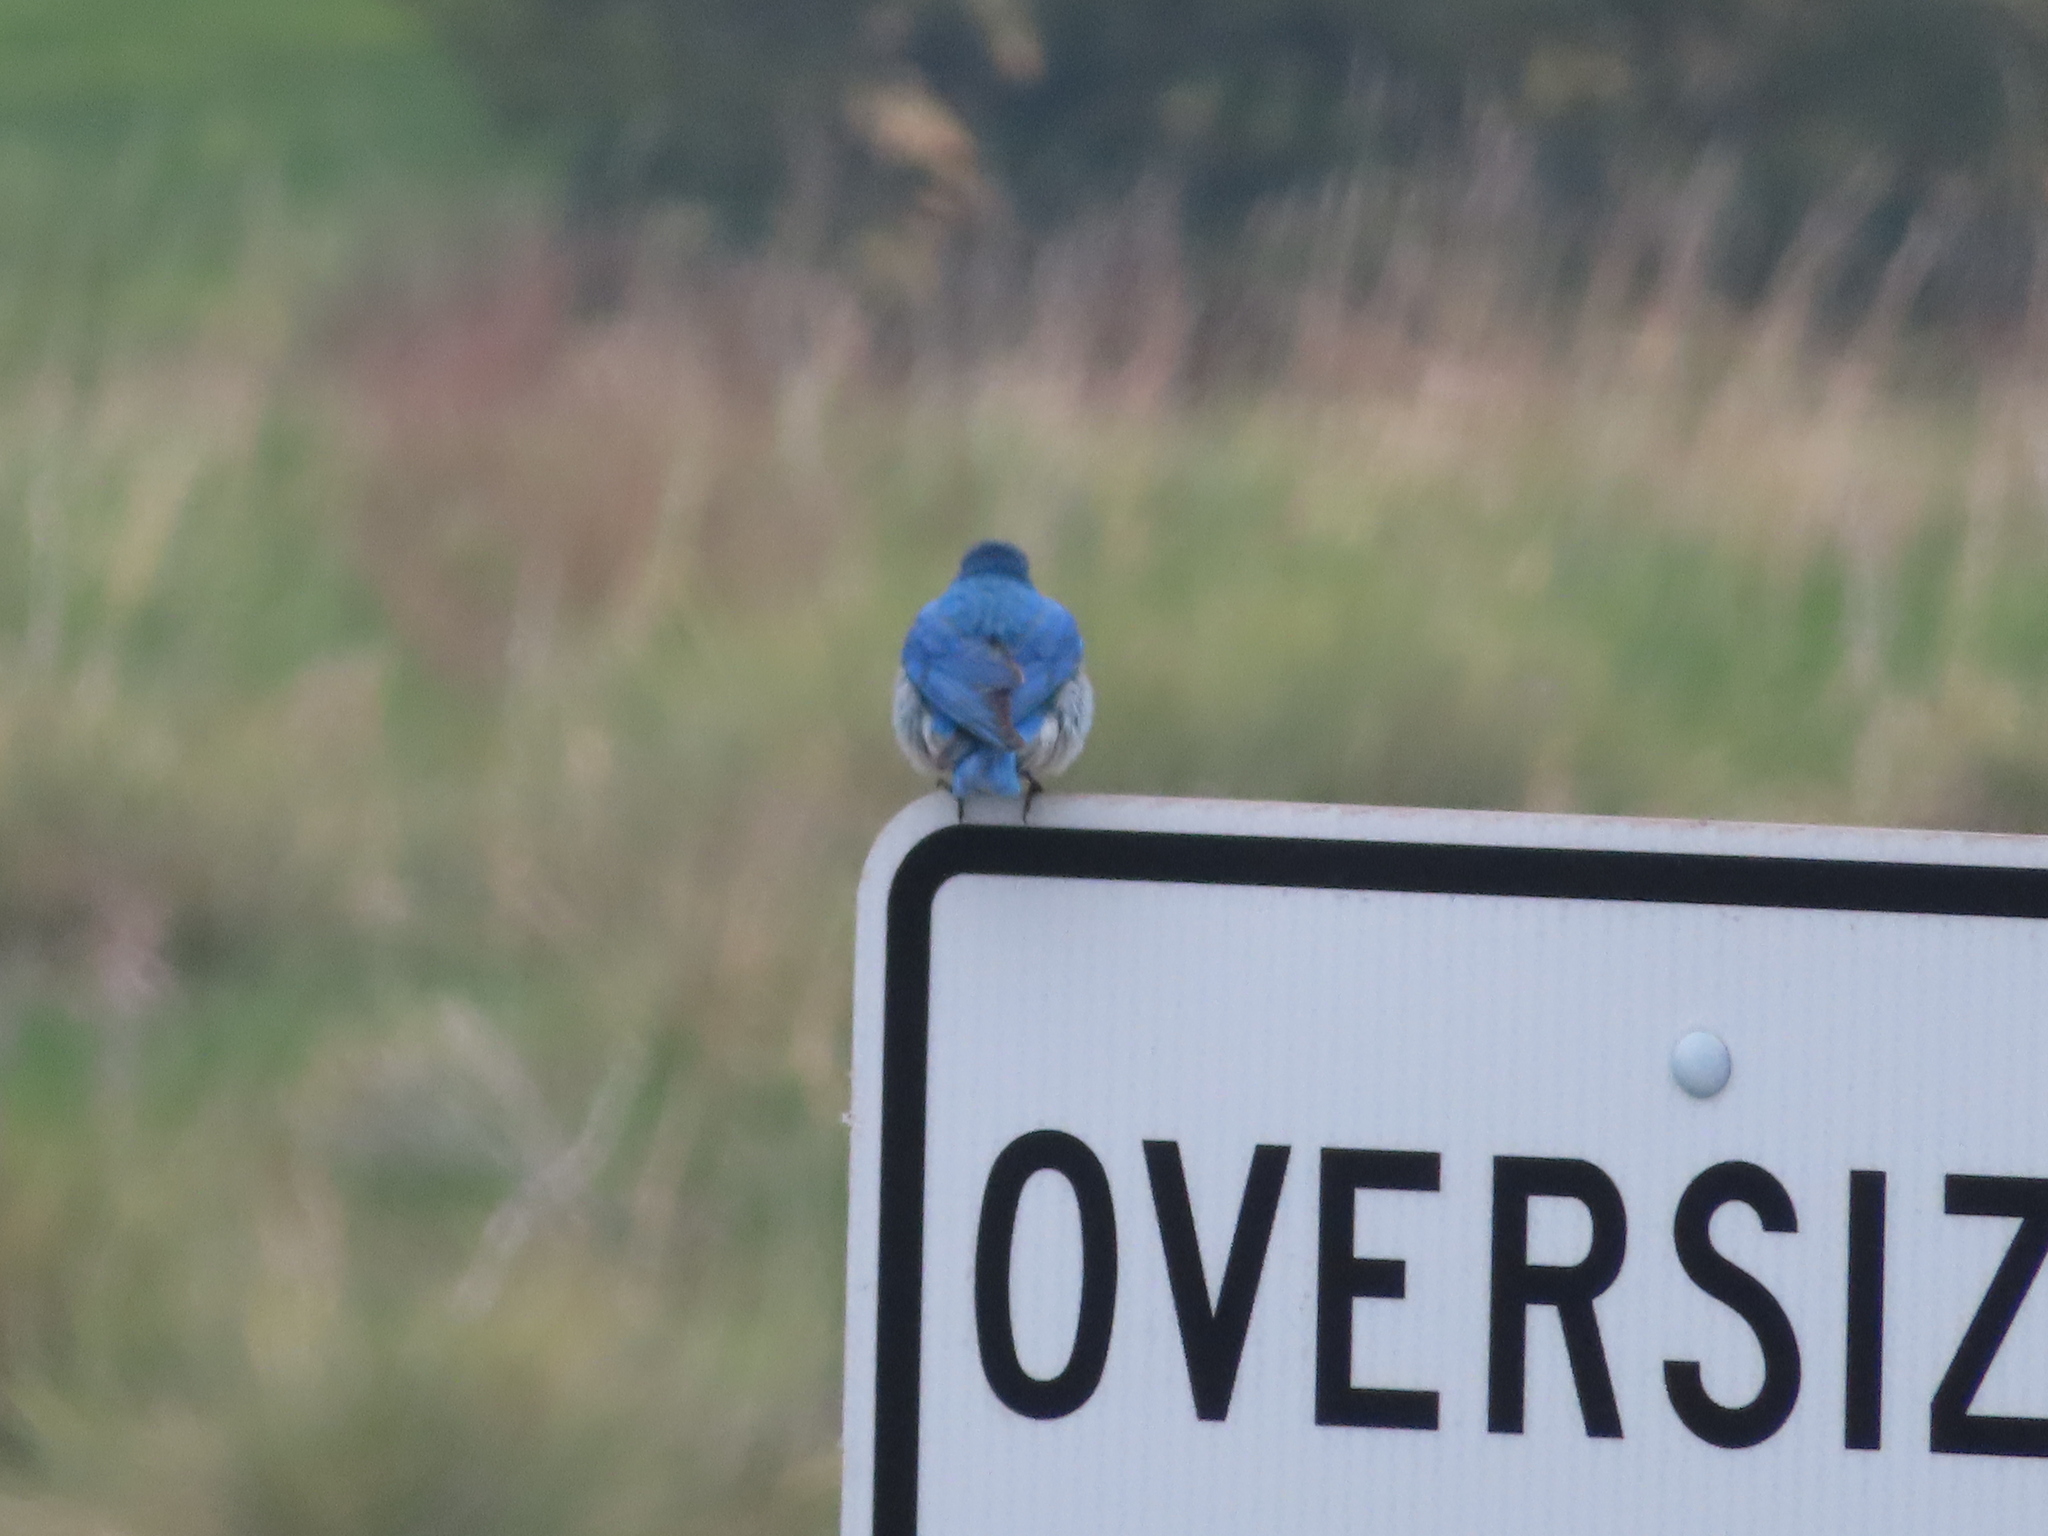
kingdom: Animalia
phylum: Chordata
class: Aves
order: Passeriformes
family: Turdidae
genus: Sialia
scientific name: Sialia currucoides
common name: Mountain bluebird
